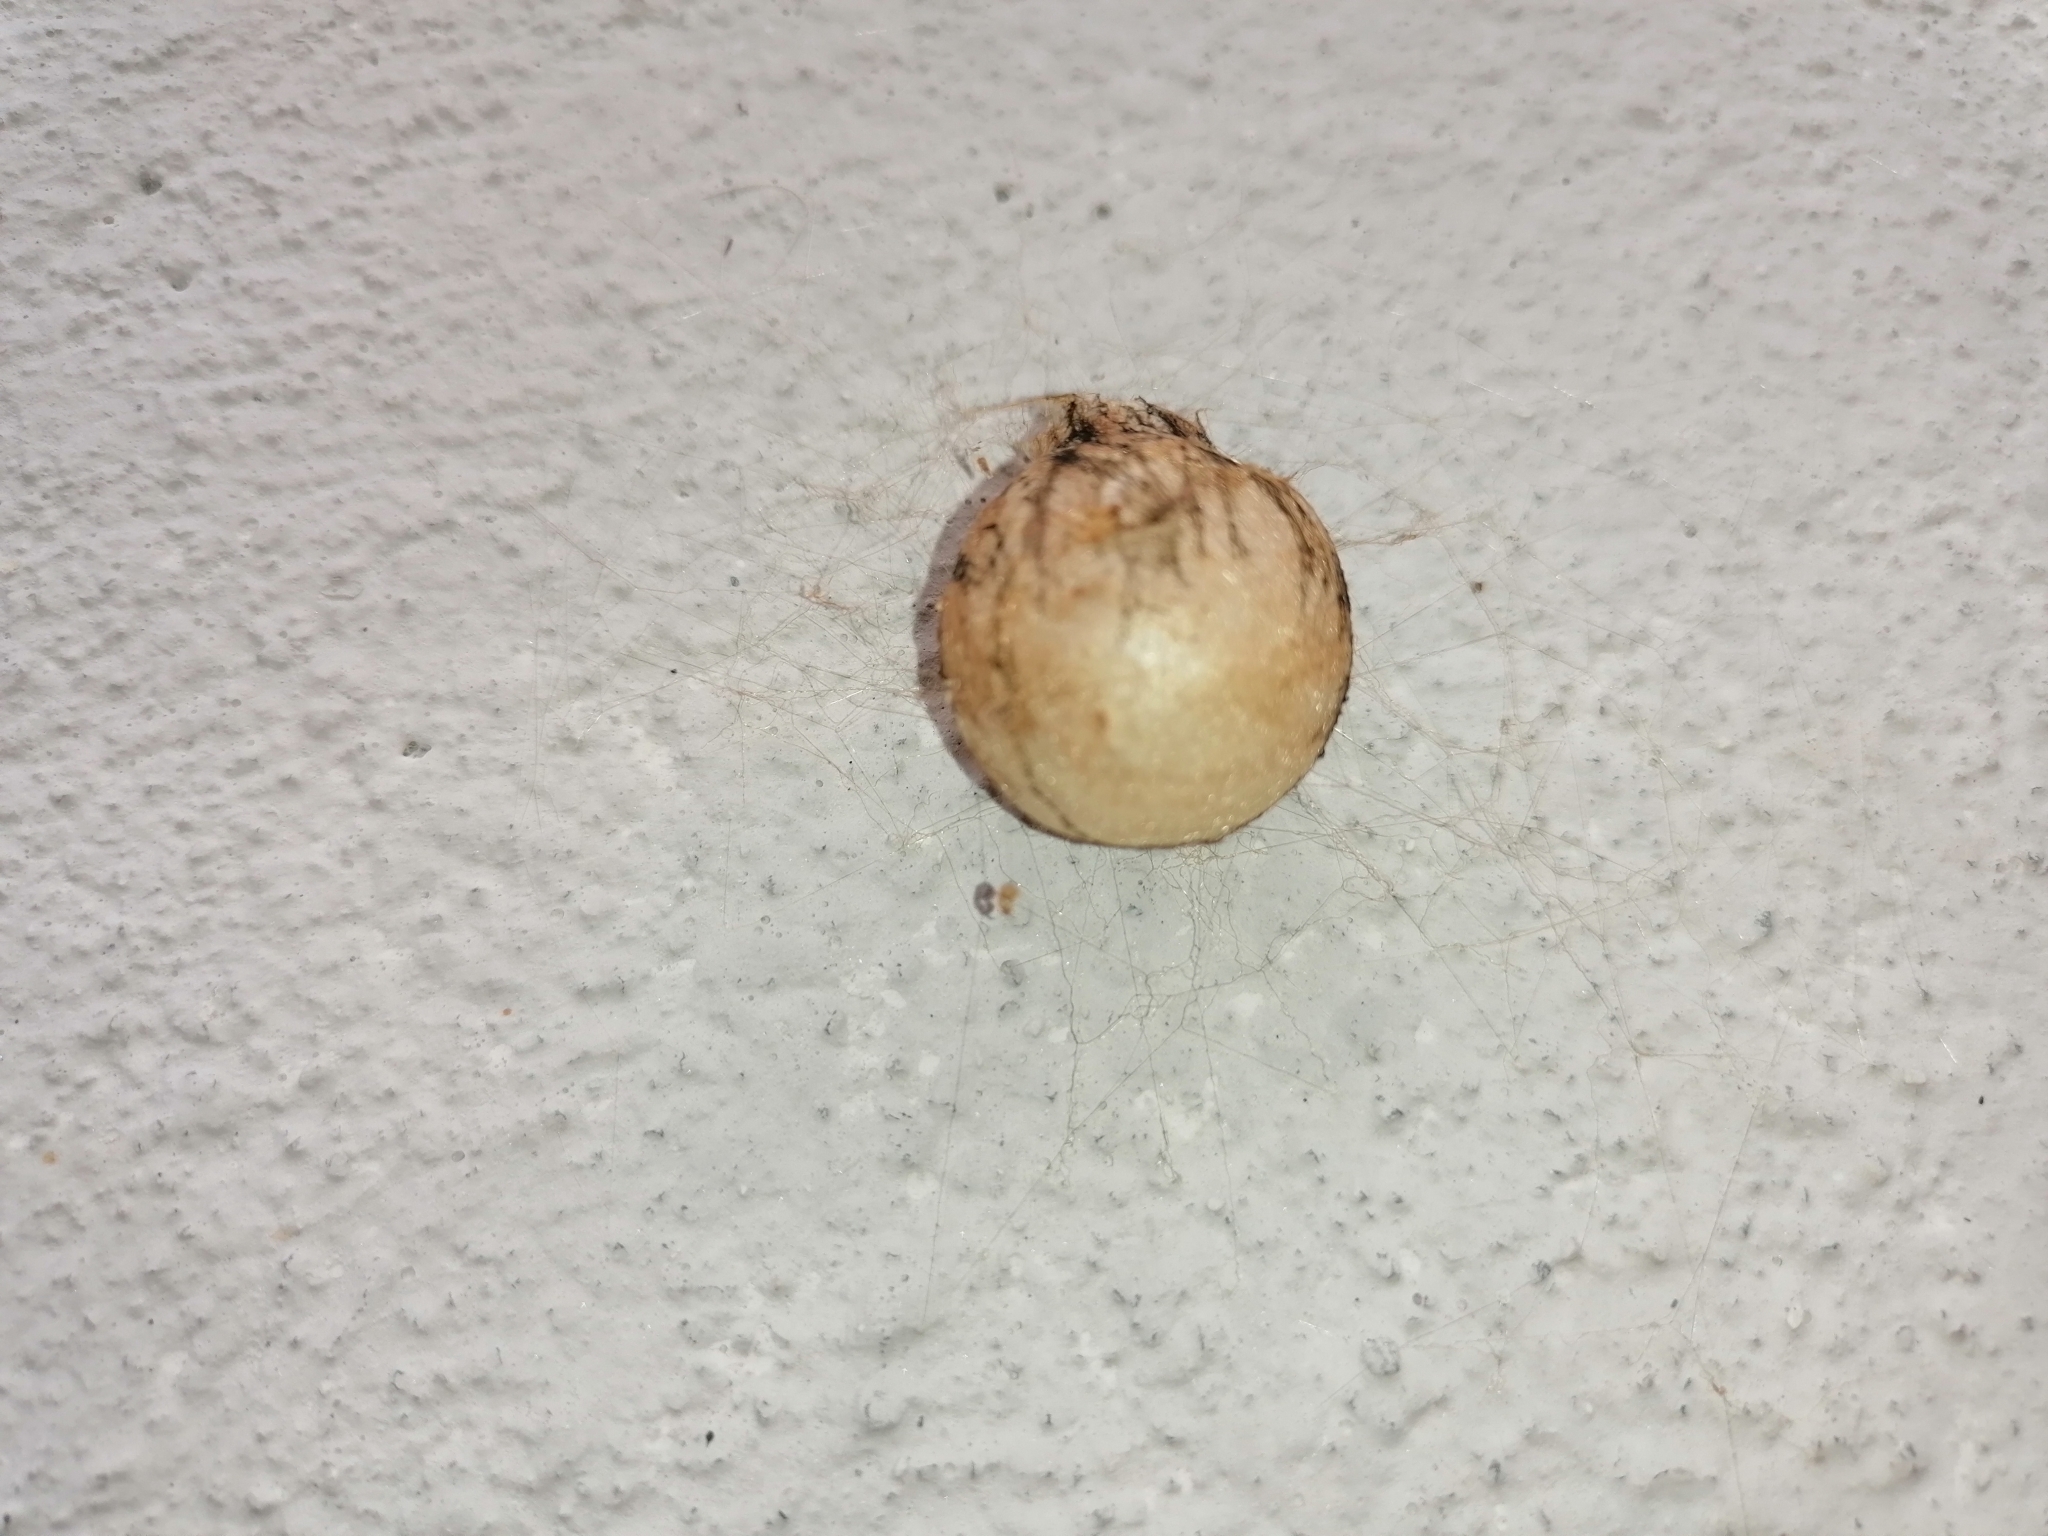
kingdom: Animalia
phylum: Arthropoda
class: Arachnida
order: Araneae
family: Araneidae
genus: Argiope
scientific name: Argiope bruennichi
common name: Wasp spider
